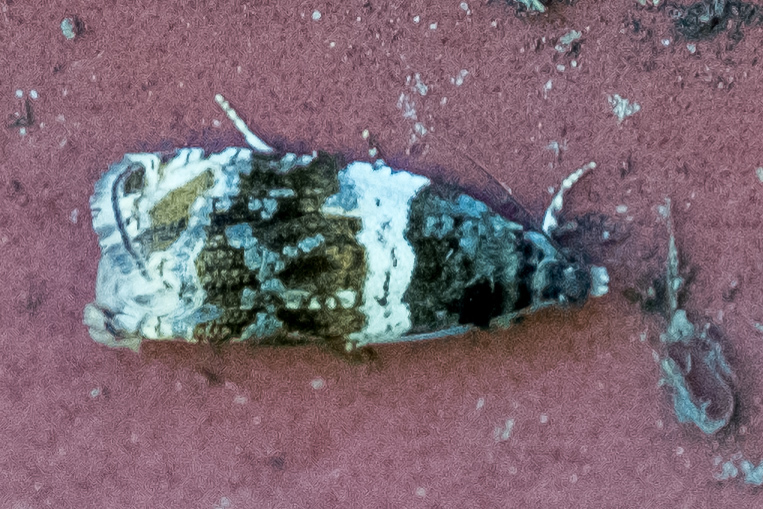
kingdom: Animalia
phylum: Arthropoda
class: Insecta
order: Lepidoptera
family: Tortricidae
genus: Olethreutes
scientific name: Olethreutes fasciatana
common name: Banded olethreutes moth
